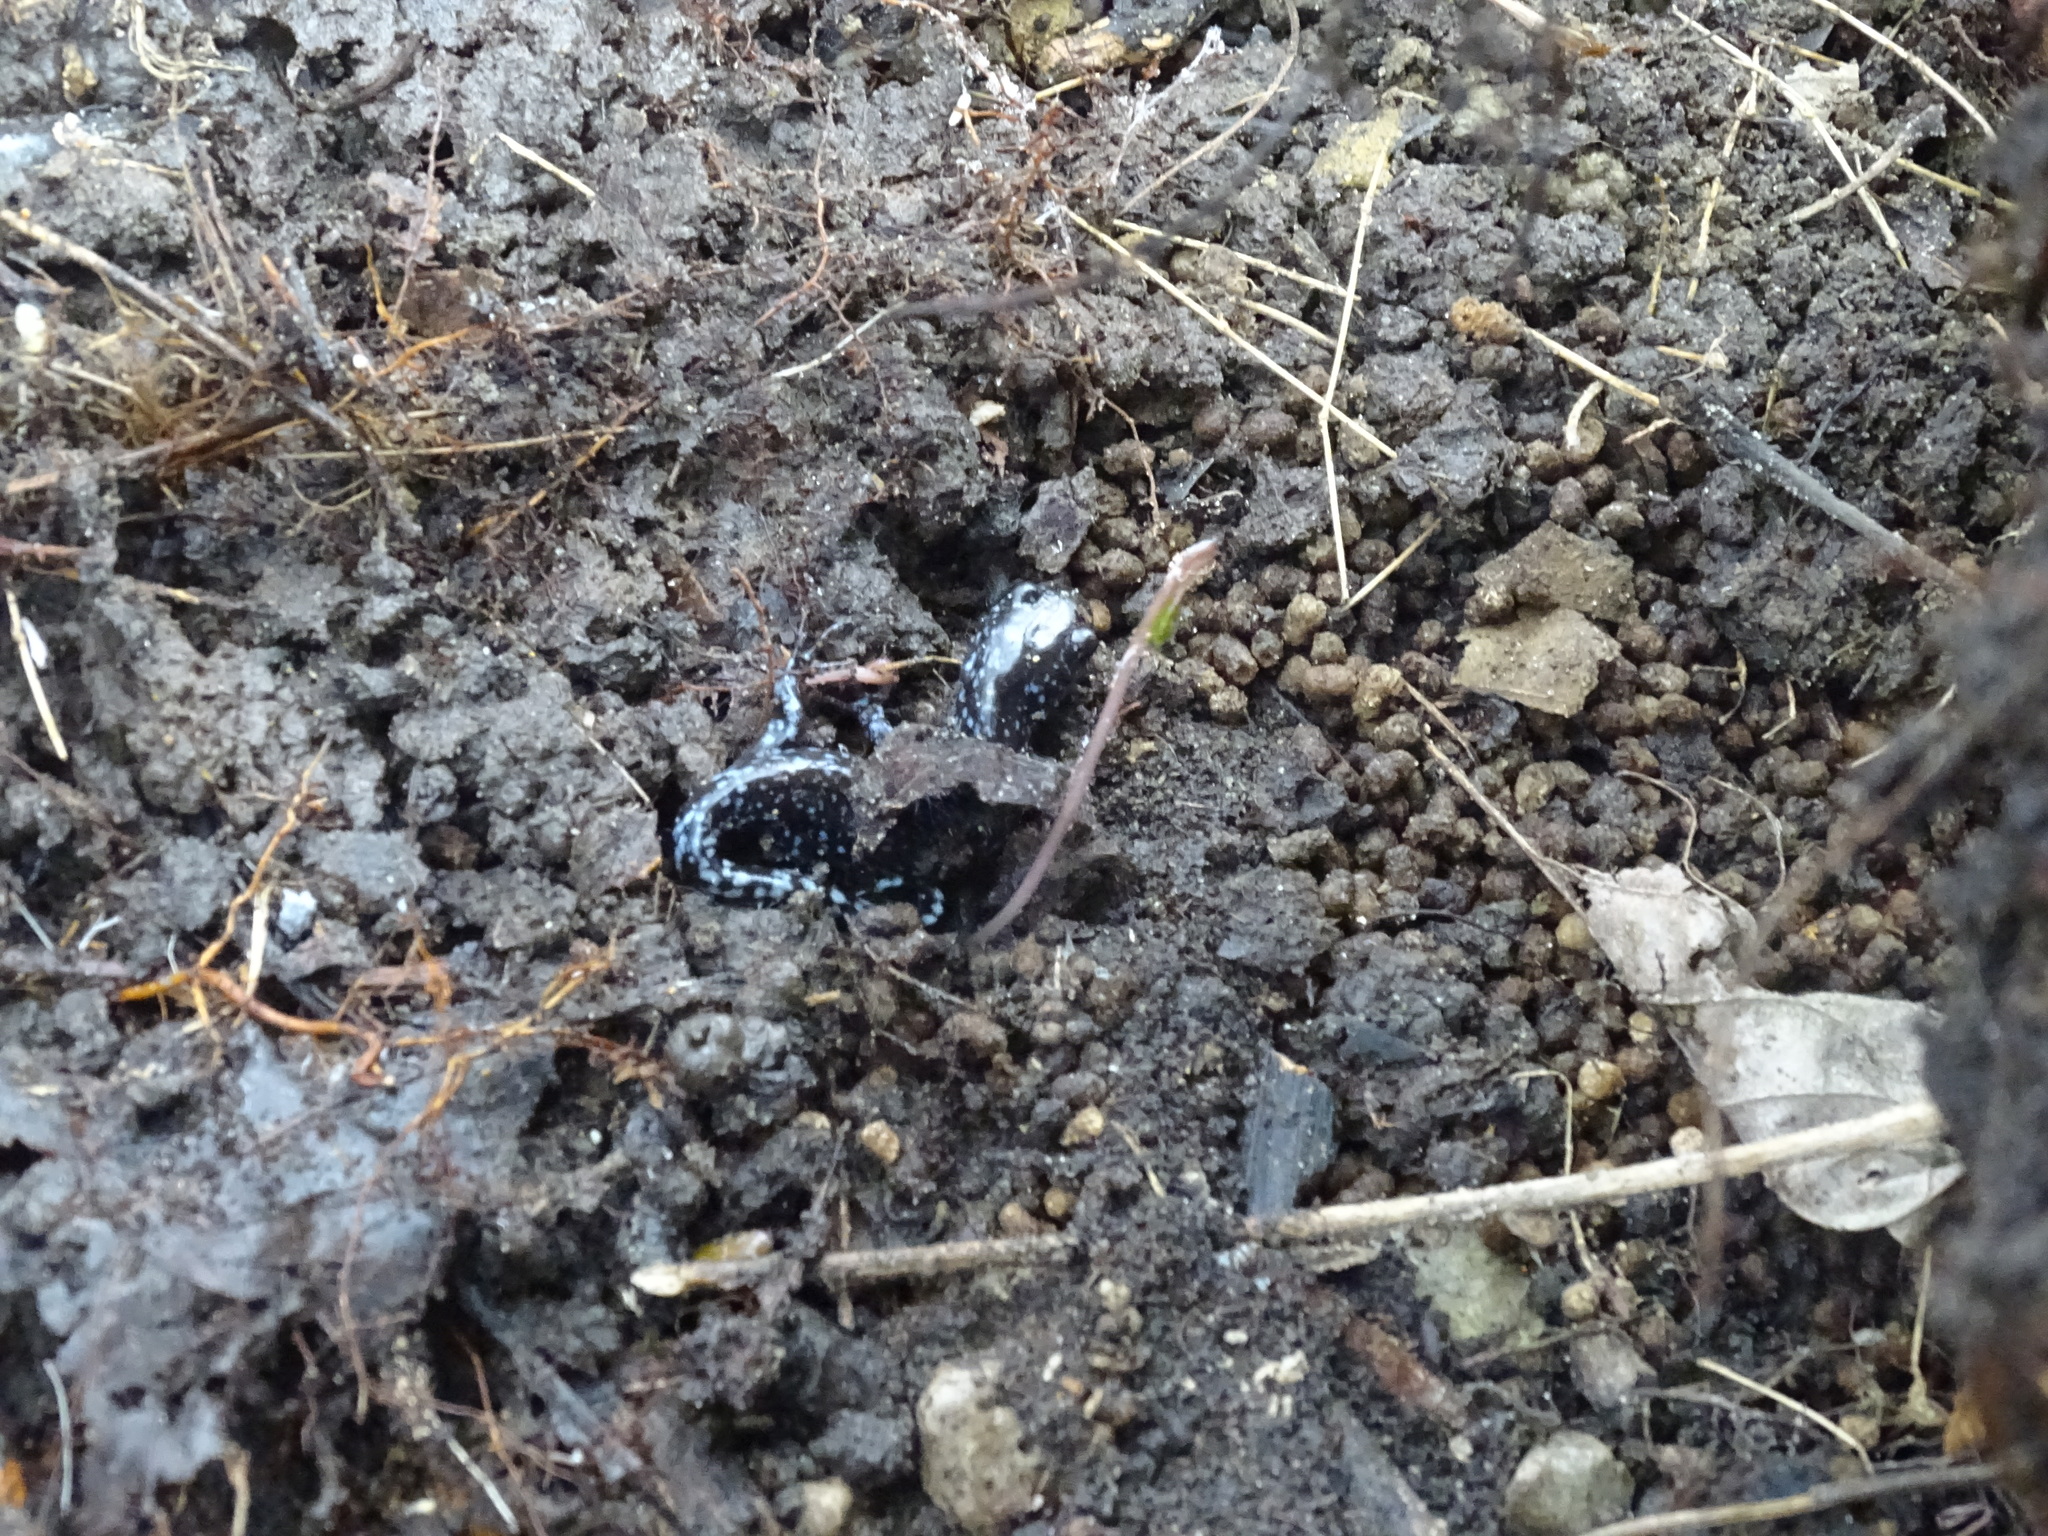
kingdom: Animalia
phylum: Chordata
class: Amphibia
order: Caudata
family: Ambystomatidae
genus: Ambystoma
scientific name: Ambystoma laterale
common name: Blue-spotted salamander
